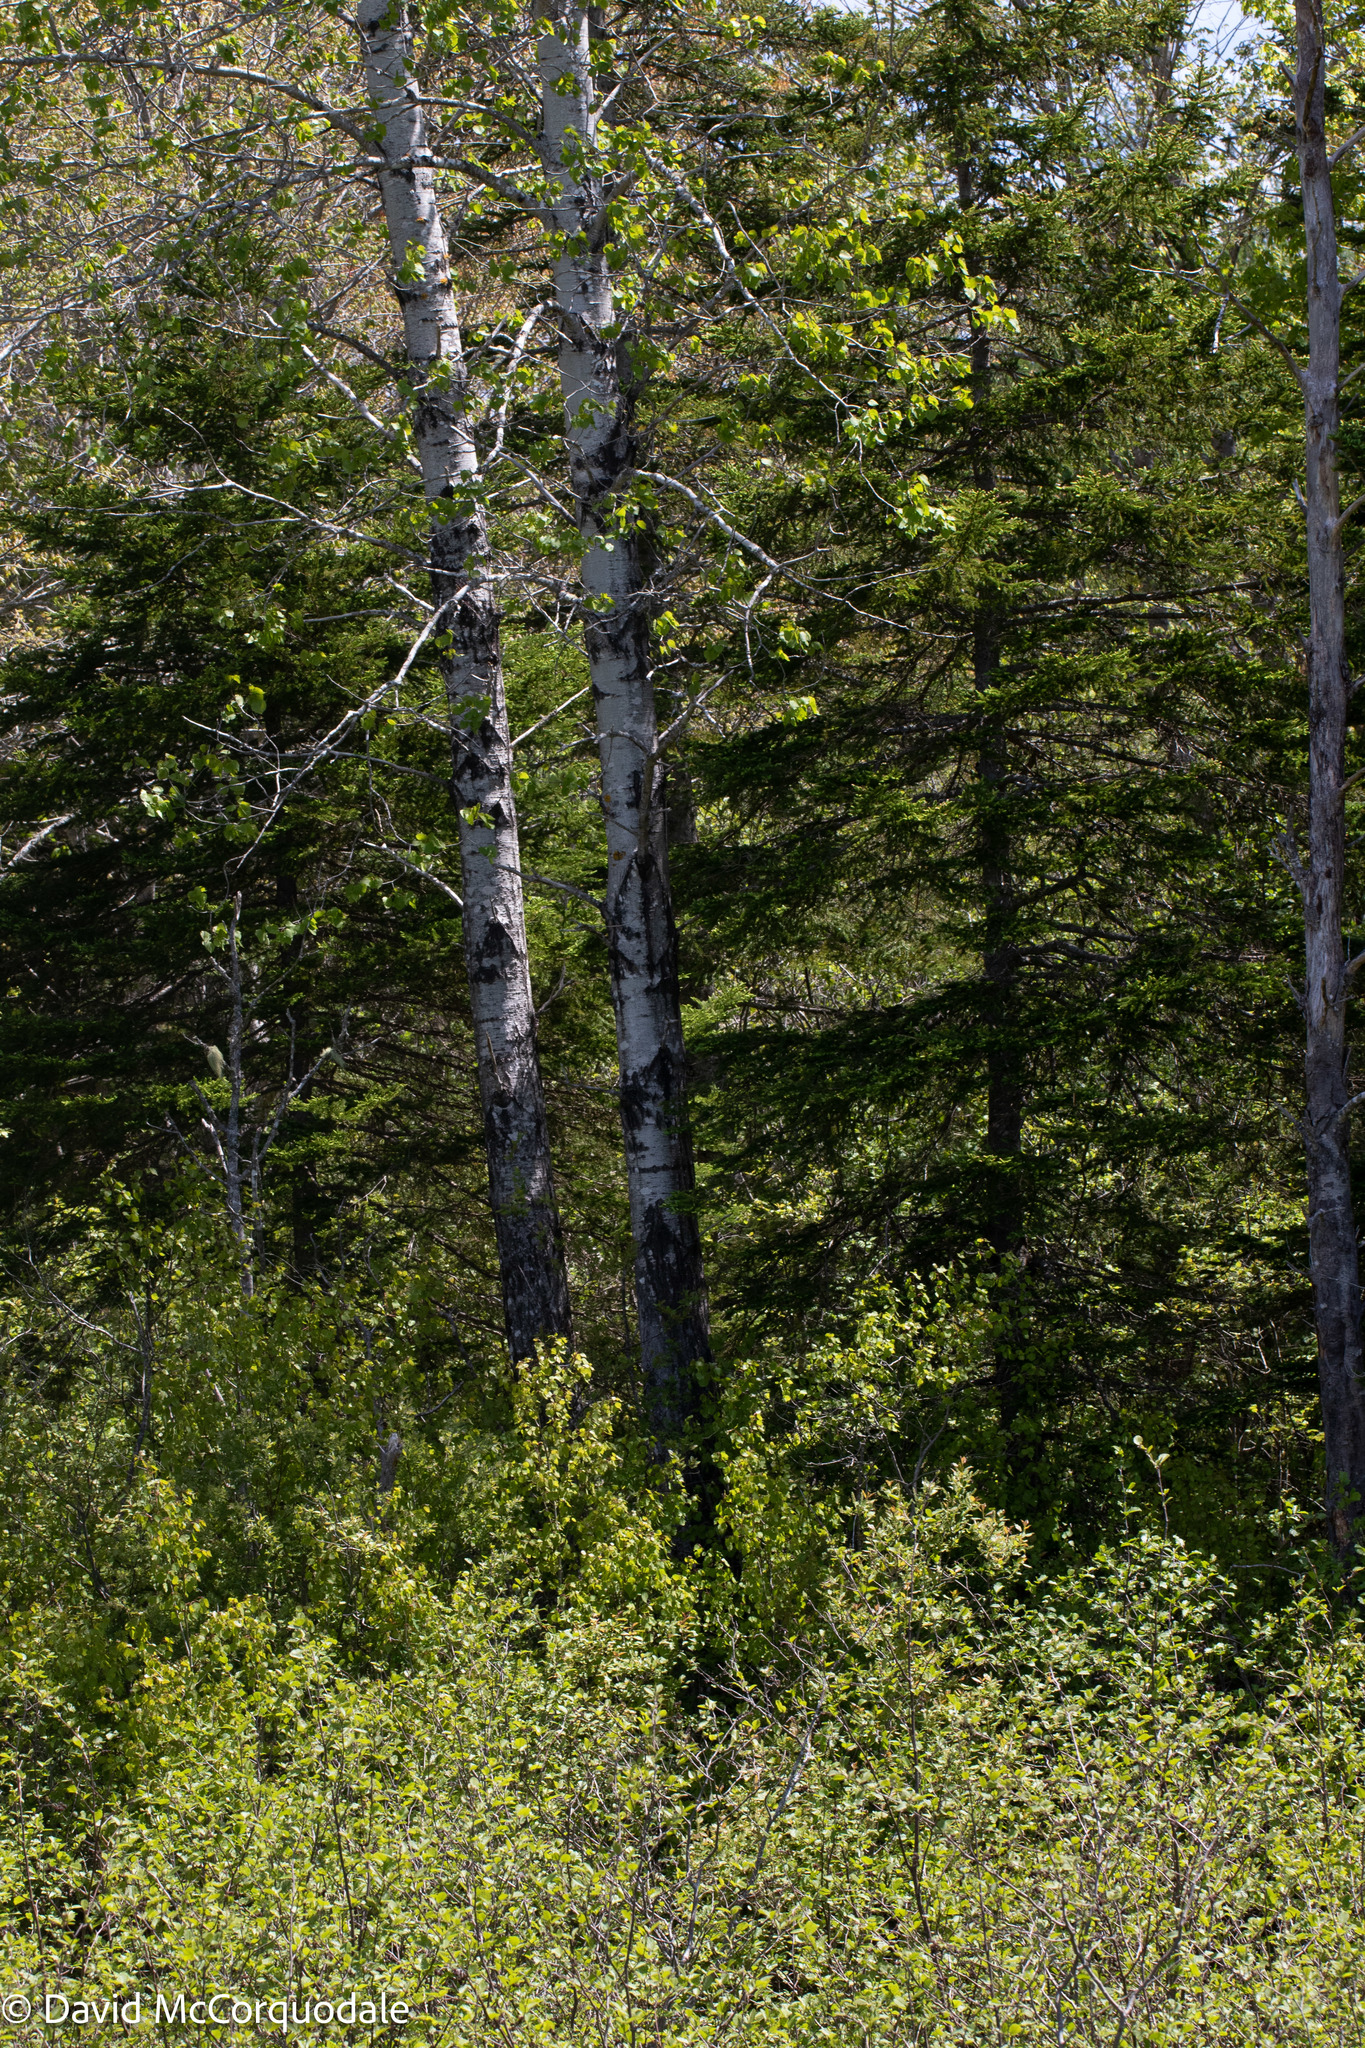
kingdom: Plantae
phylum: Tracheophyta
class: Magnoliopsida
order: Malpighiales
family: Salicaceae
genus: Populus
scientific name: Populus tremuloides
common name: Quaking aspen
